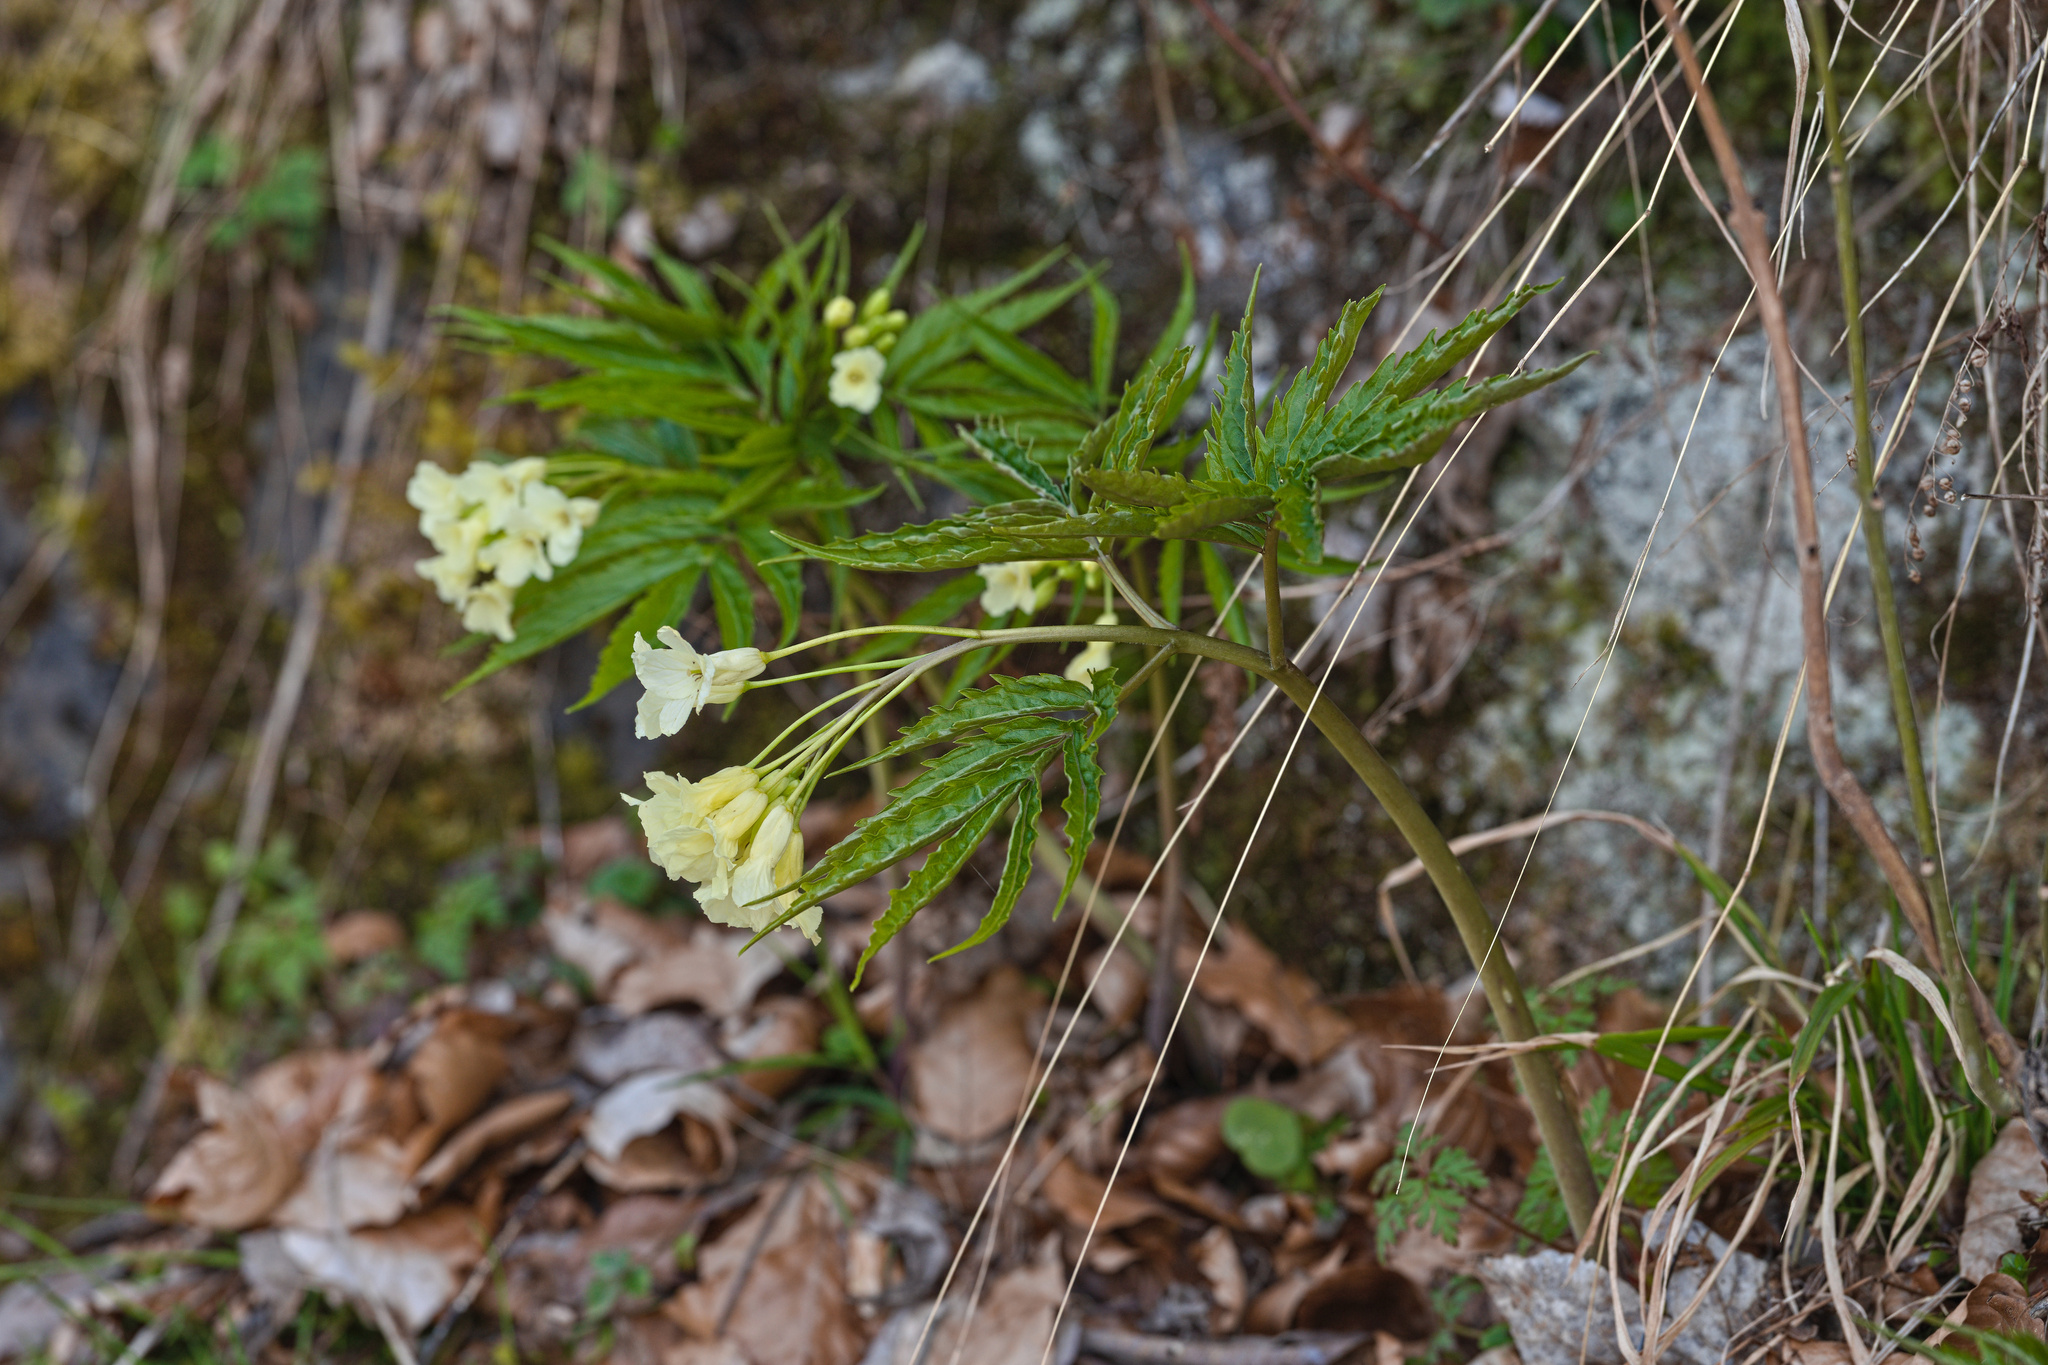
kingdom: Plantae
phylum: Tracheophyta
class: Magnoliopsida
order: Brassicales
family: Brassicaceae
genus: Cardamine
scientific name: Cardamine kitaibelii
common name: Kitaibel's bitter-cress
